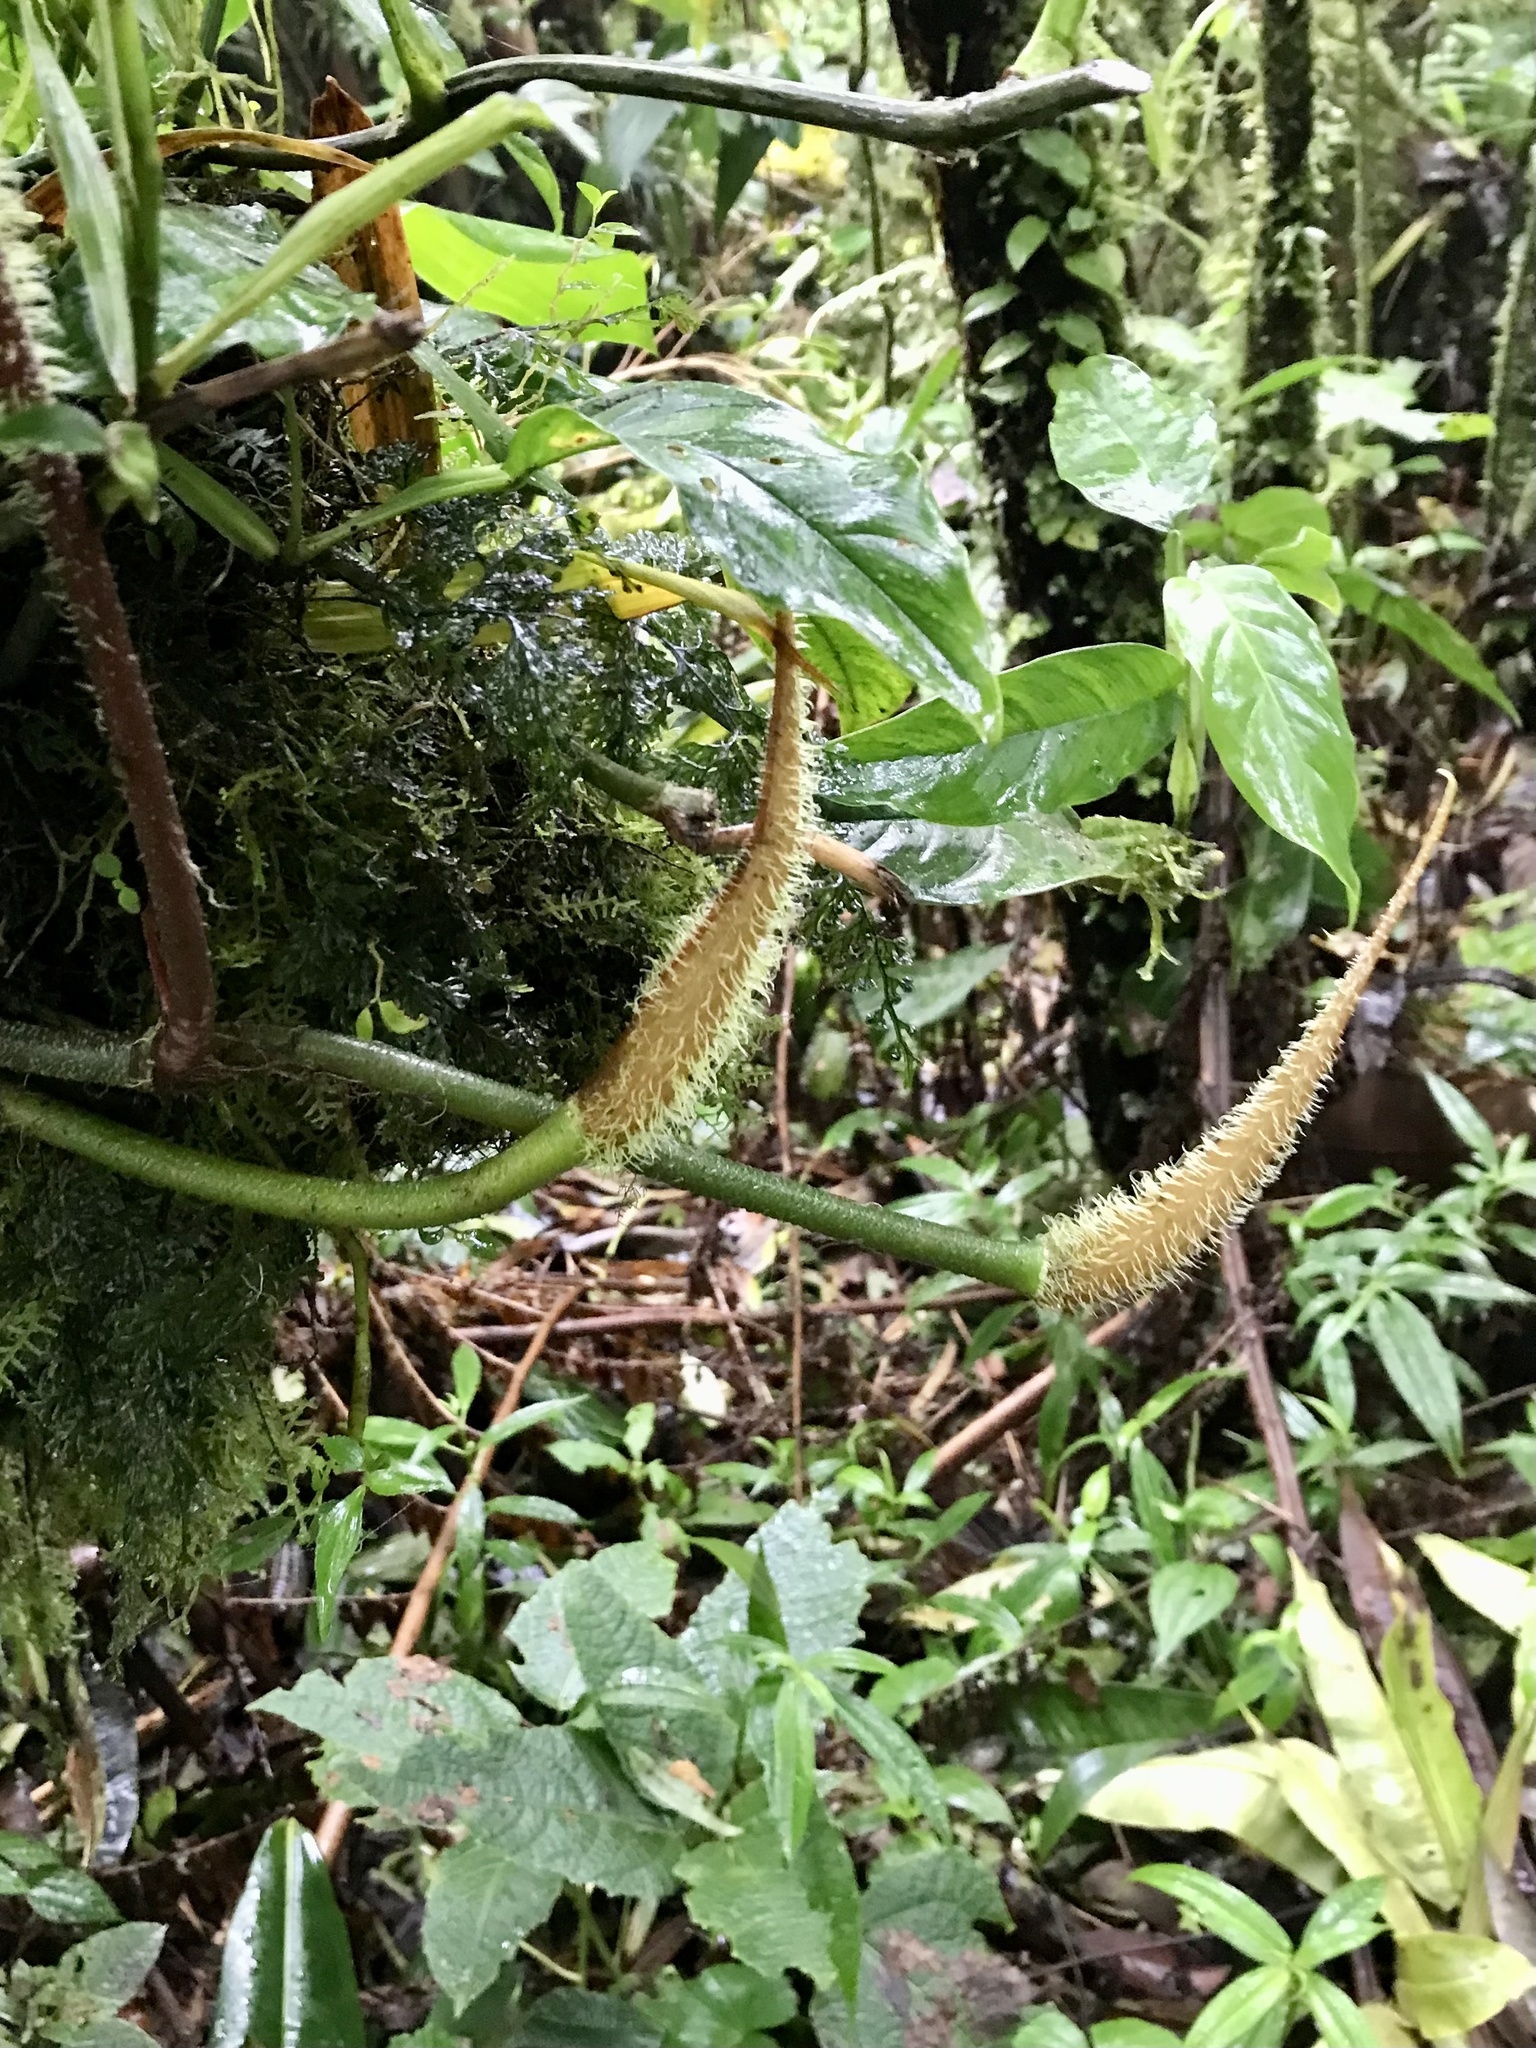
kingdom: Plantae
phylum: Tracheophyta
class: Liliopsida
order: Alismatales
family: Araceae
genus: Philodendron
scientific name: Philodendron verrucosum
